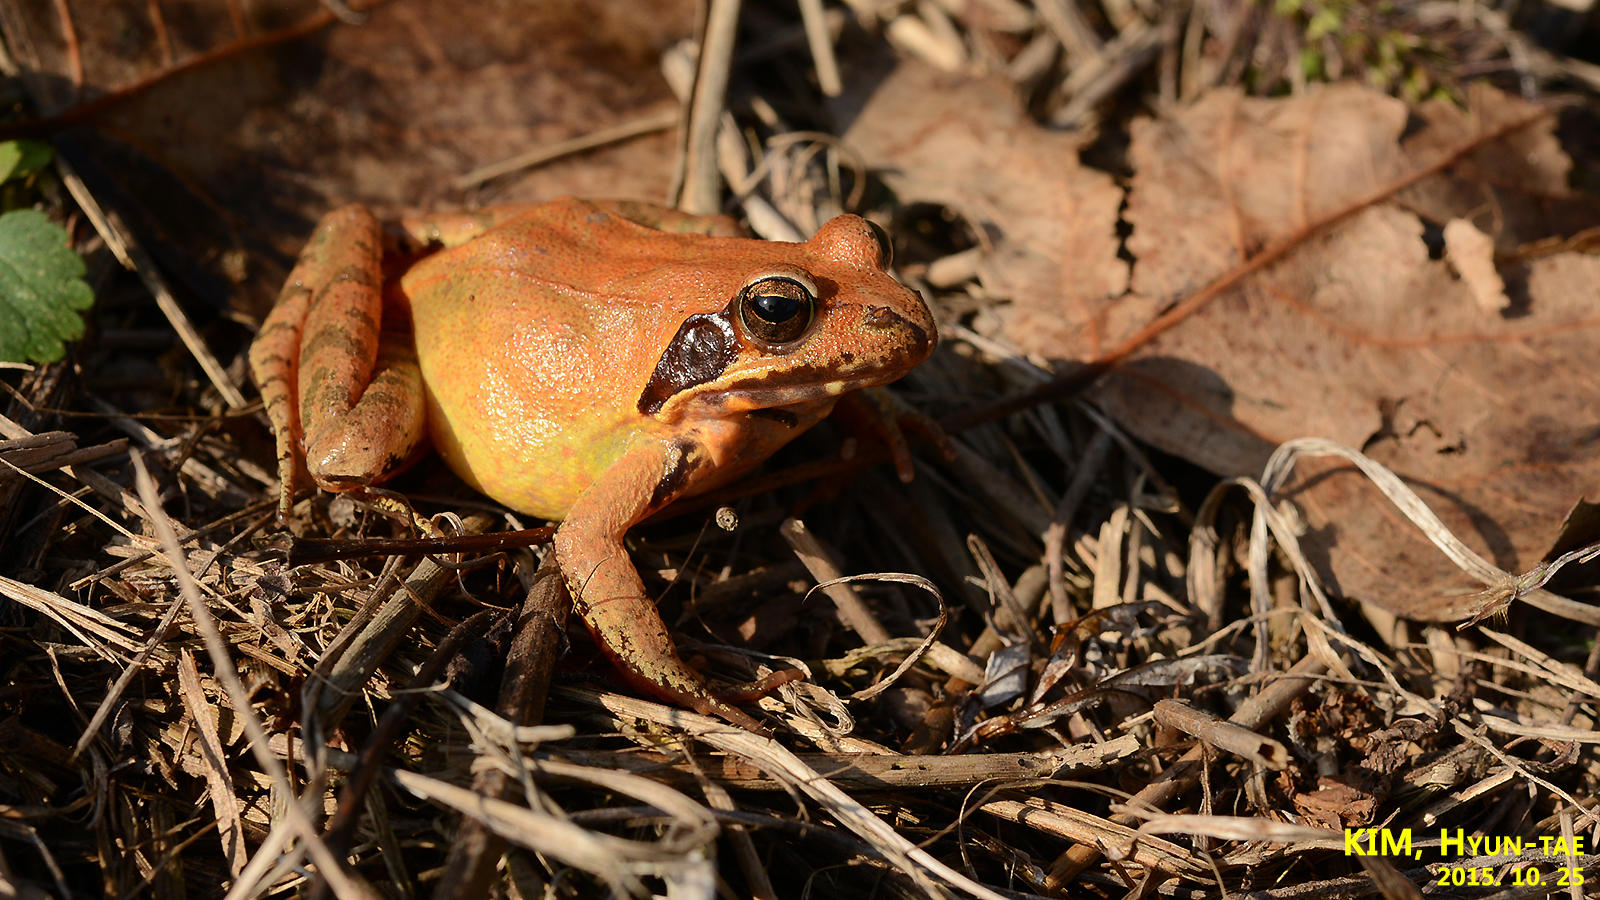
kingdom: Animalia
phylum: Chordata
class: Amphibia
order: Anura
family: Ranidae
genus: Rana
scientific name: Rana uenoi
